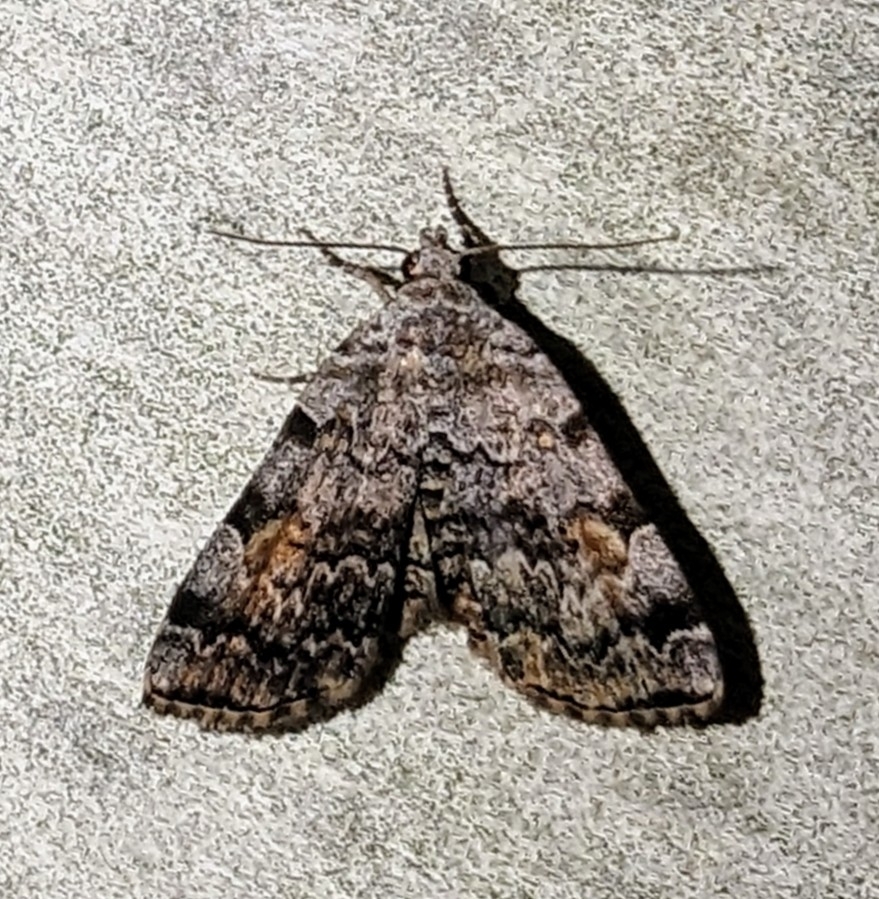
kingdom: Animalia
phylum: Arthropoda
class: Insecta
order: Lepidoptera
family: Erebidae
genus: Idia
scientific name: Idia americalis
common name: American idia moth
